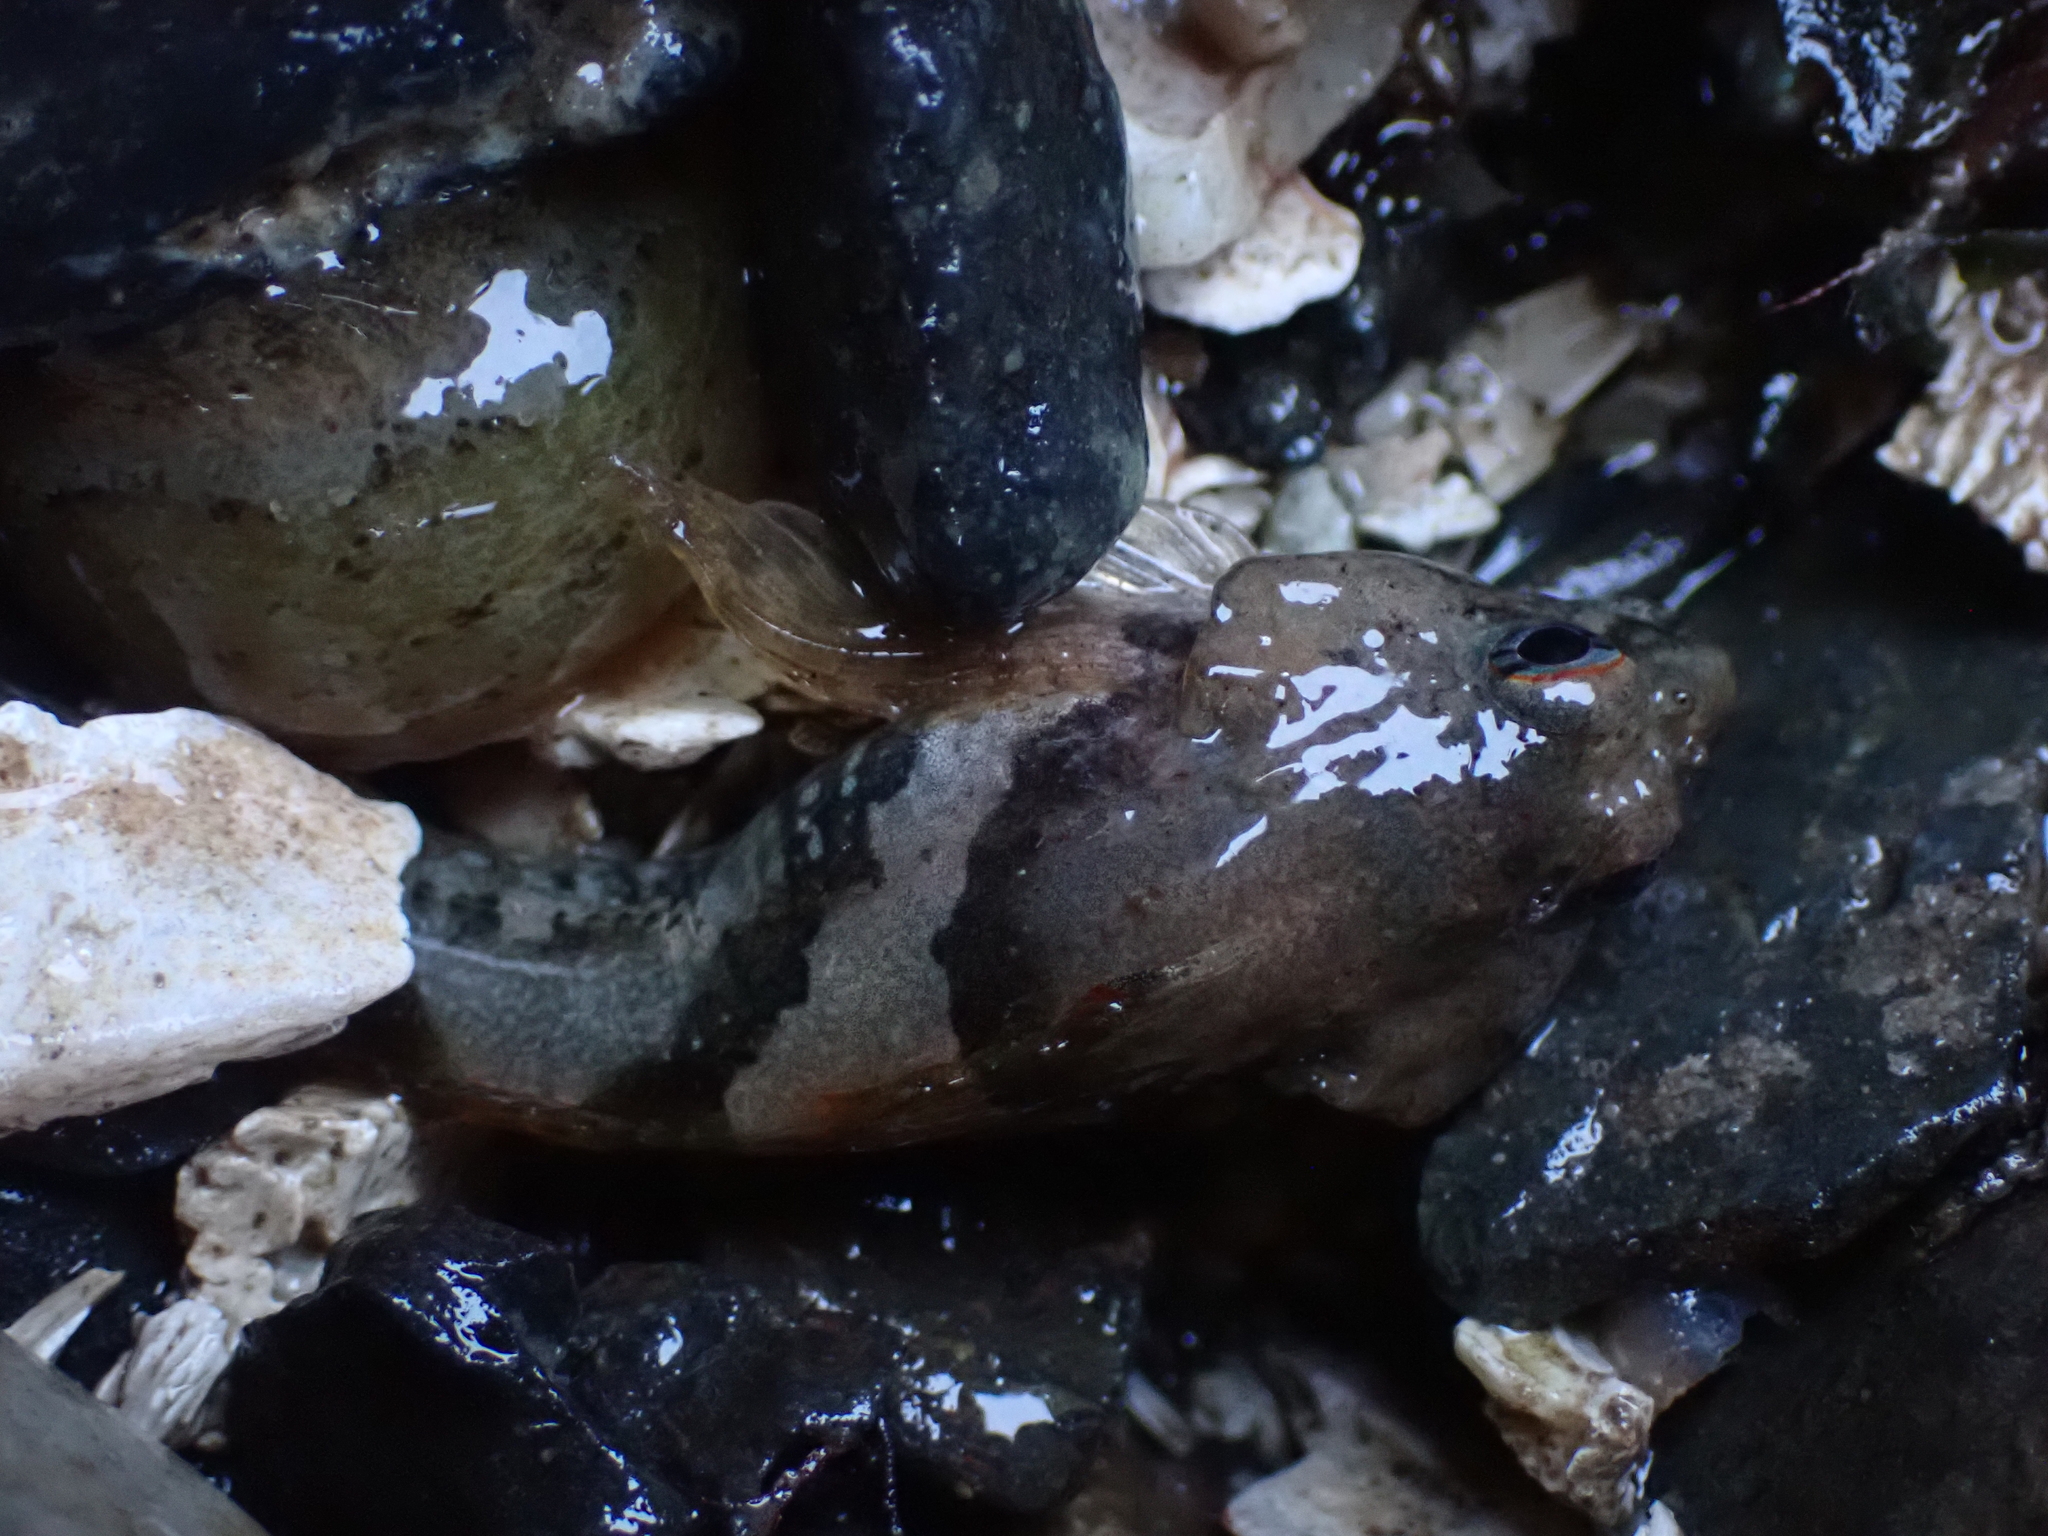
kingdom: Animalia
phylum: Chordata
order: Scorpaeniformes
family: Cottidae
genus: Oligocottus
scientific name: Oligocottus maculosus
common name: Tidepool sculpin
